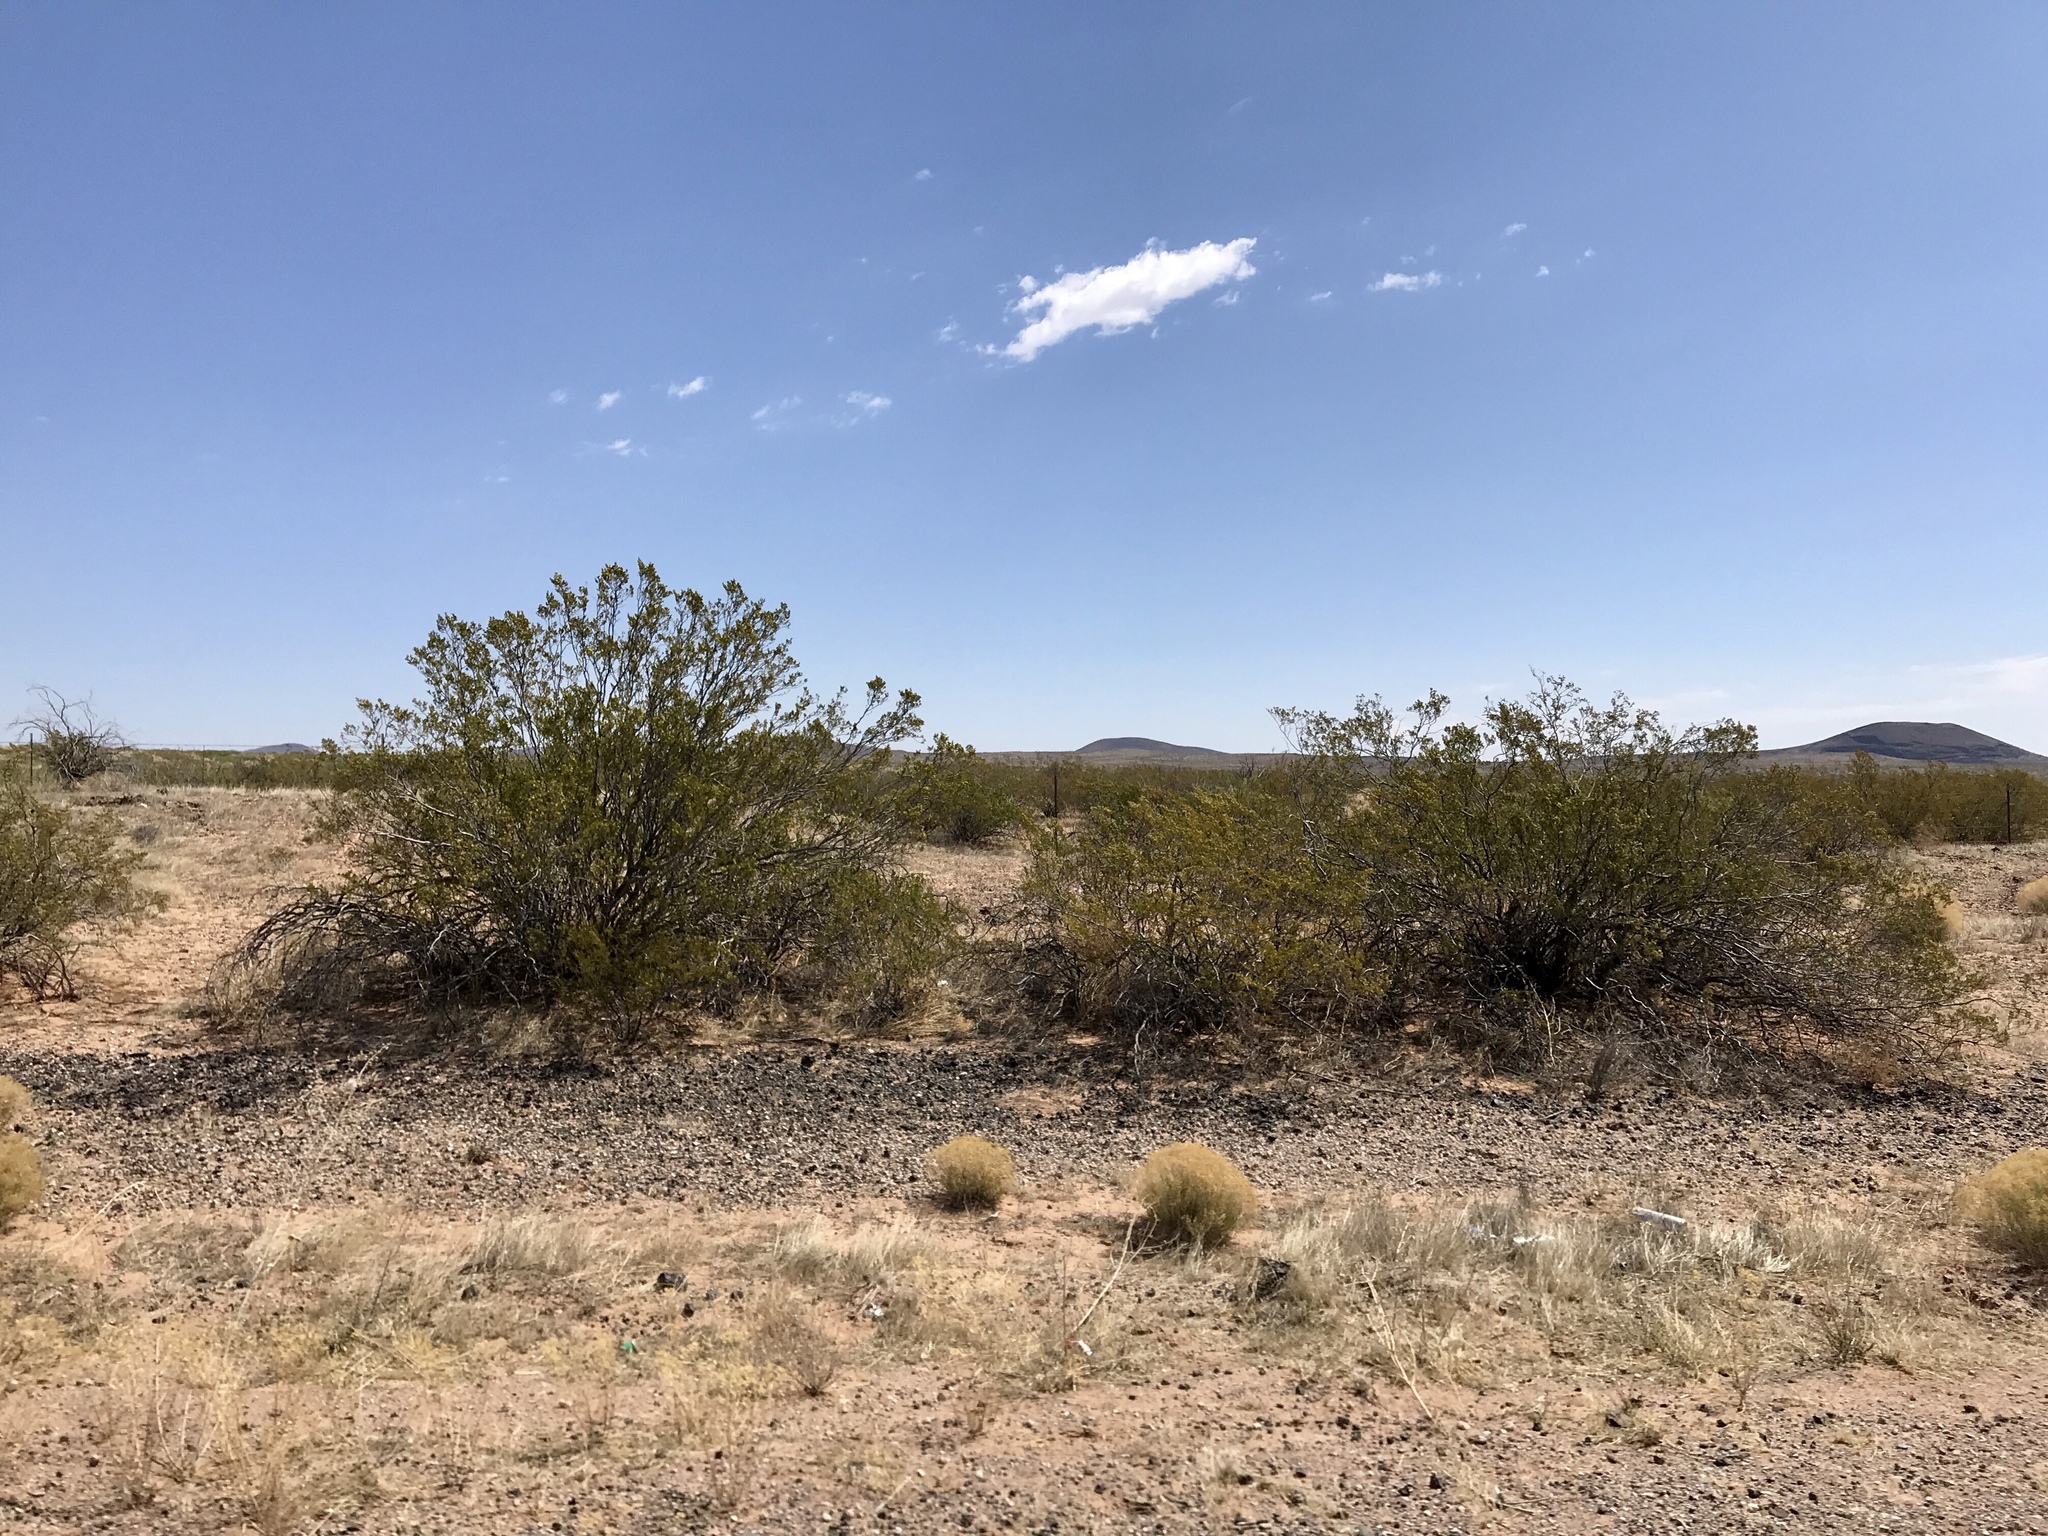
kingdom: Plantae
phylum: Tracheophyta
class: Magnoliopsida
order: Zygophyllales
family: Zygophyllaceae
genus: Larrea
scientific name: Larrea tridentata
